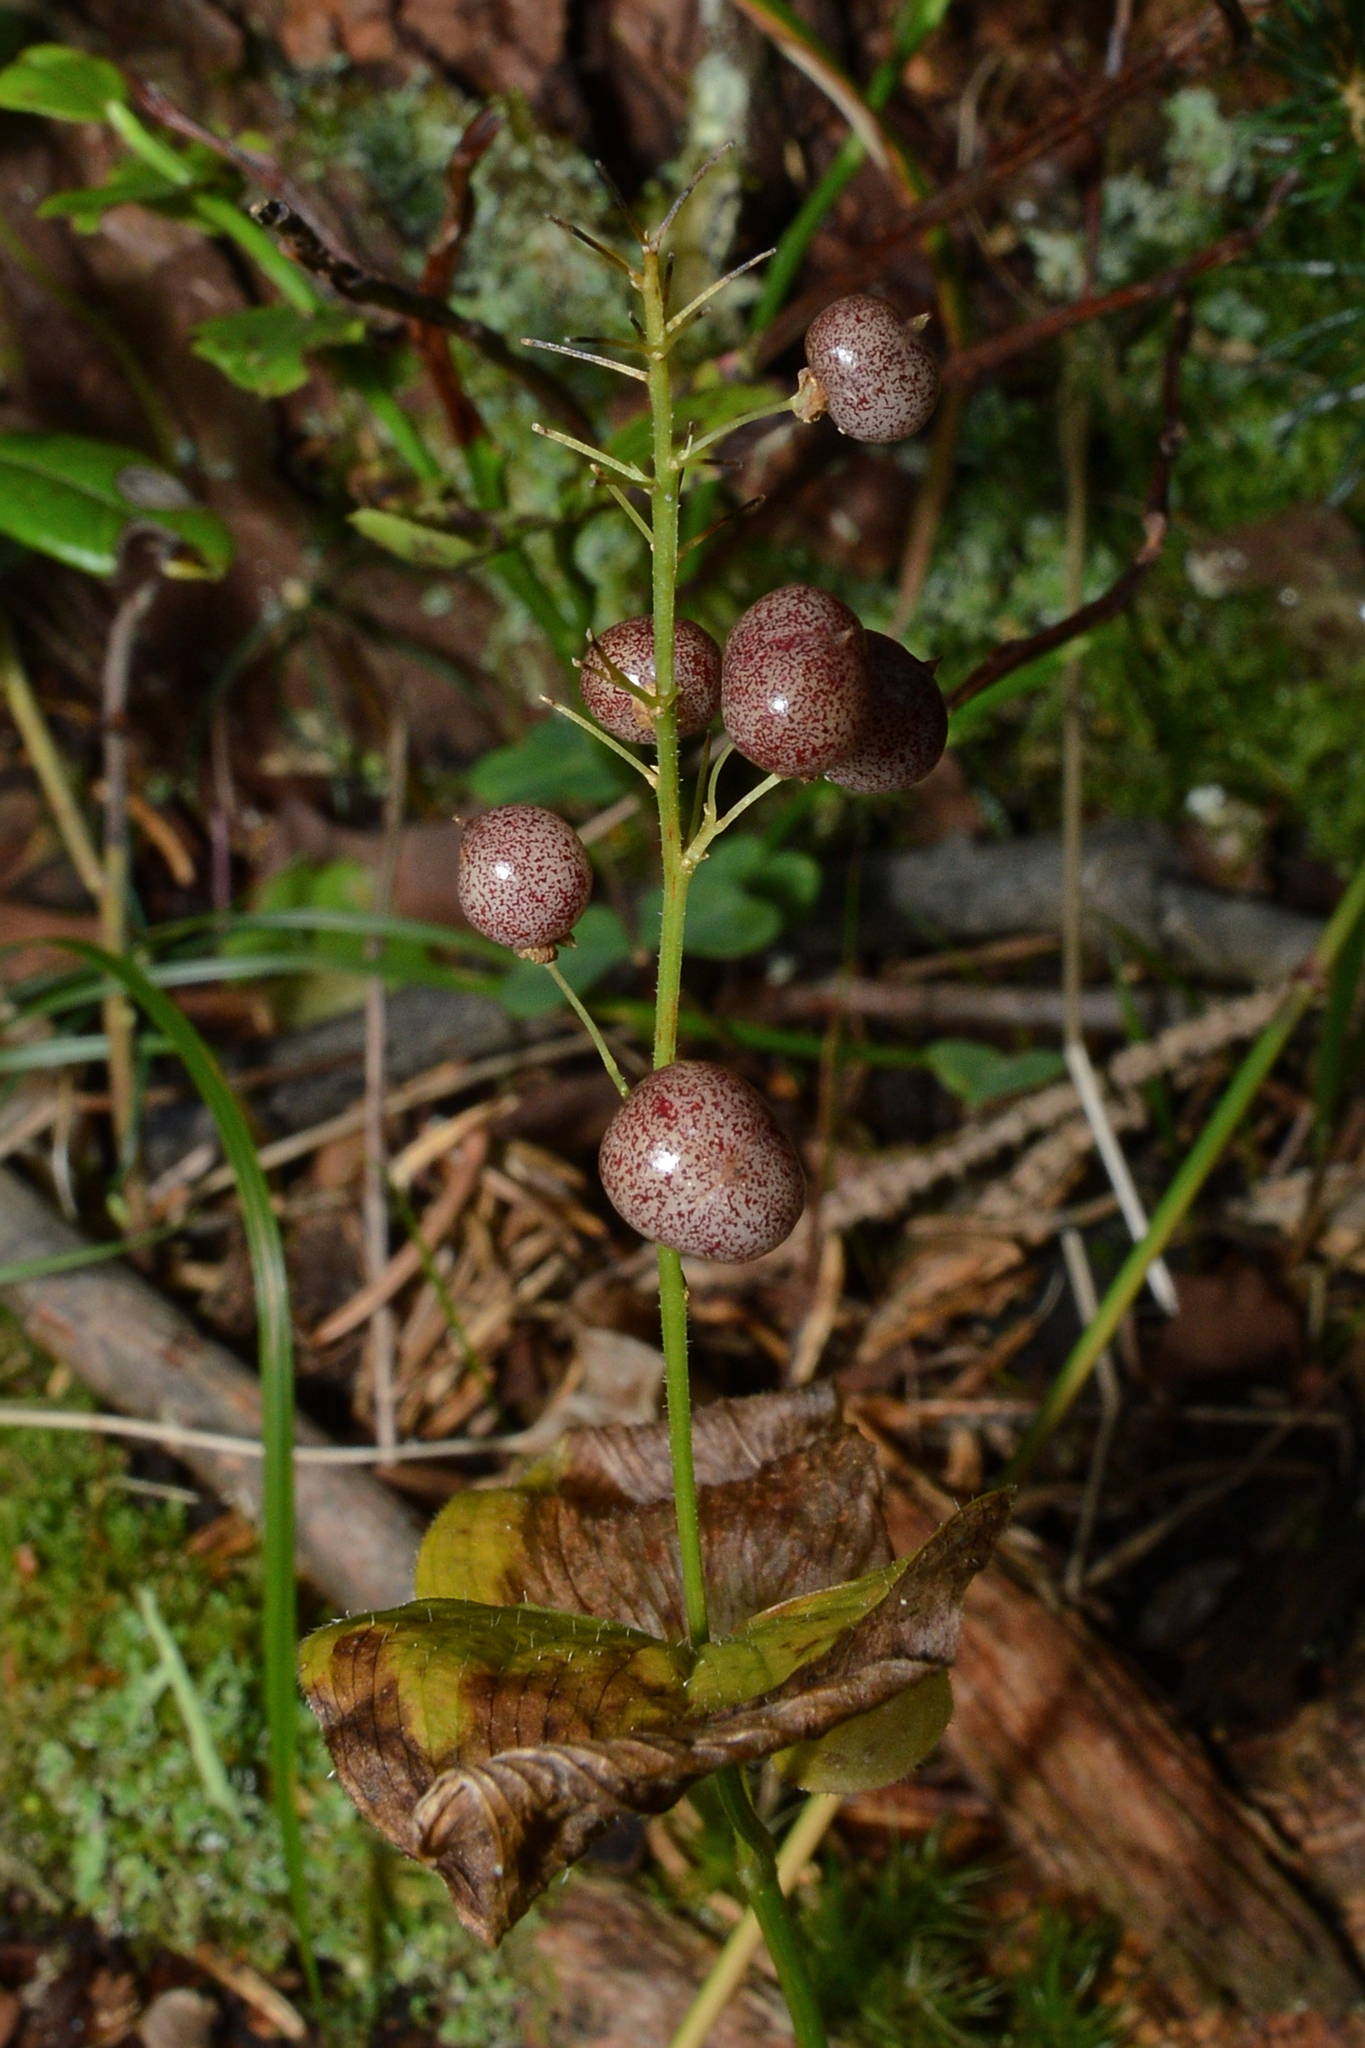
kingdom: Plantae
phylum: Tracheophyta
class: Liliopsida
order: Asparagales
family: Asparagaceae
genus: Maianthemum
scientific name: Maianthemum bifolium
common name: May lily
